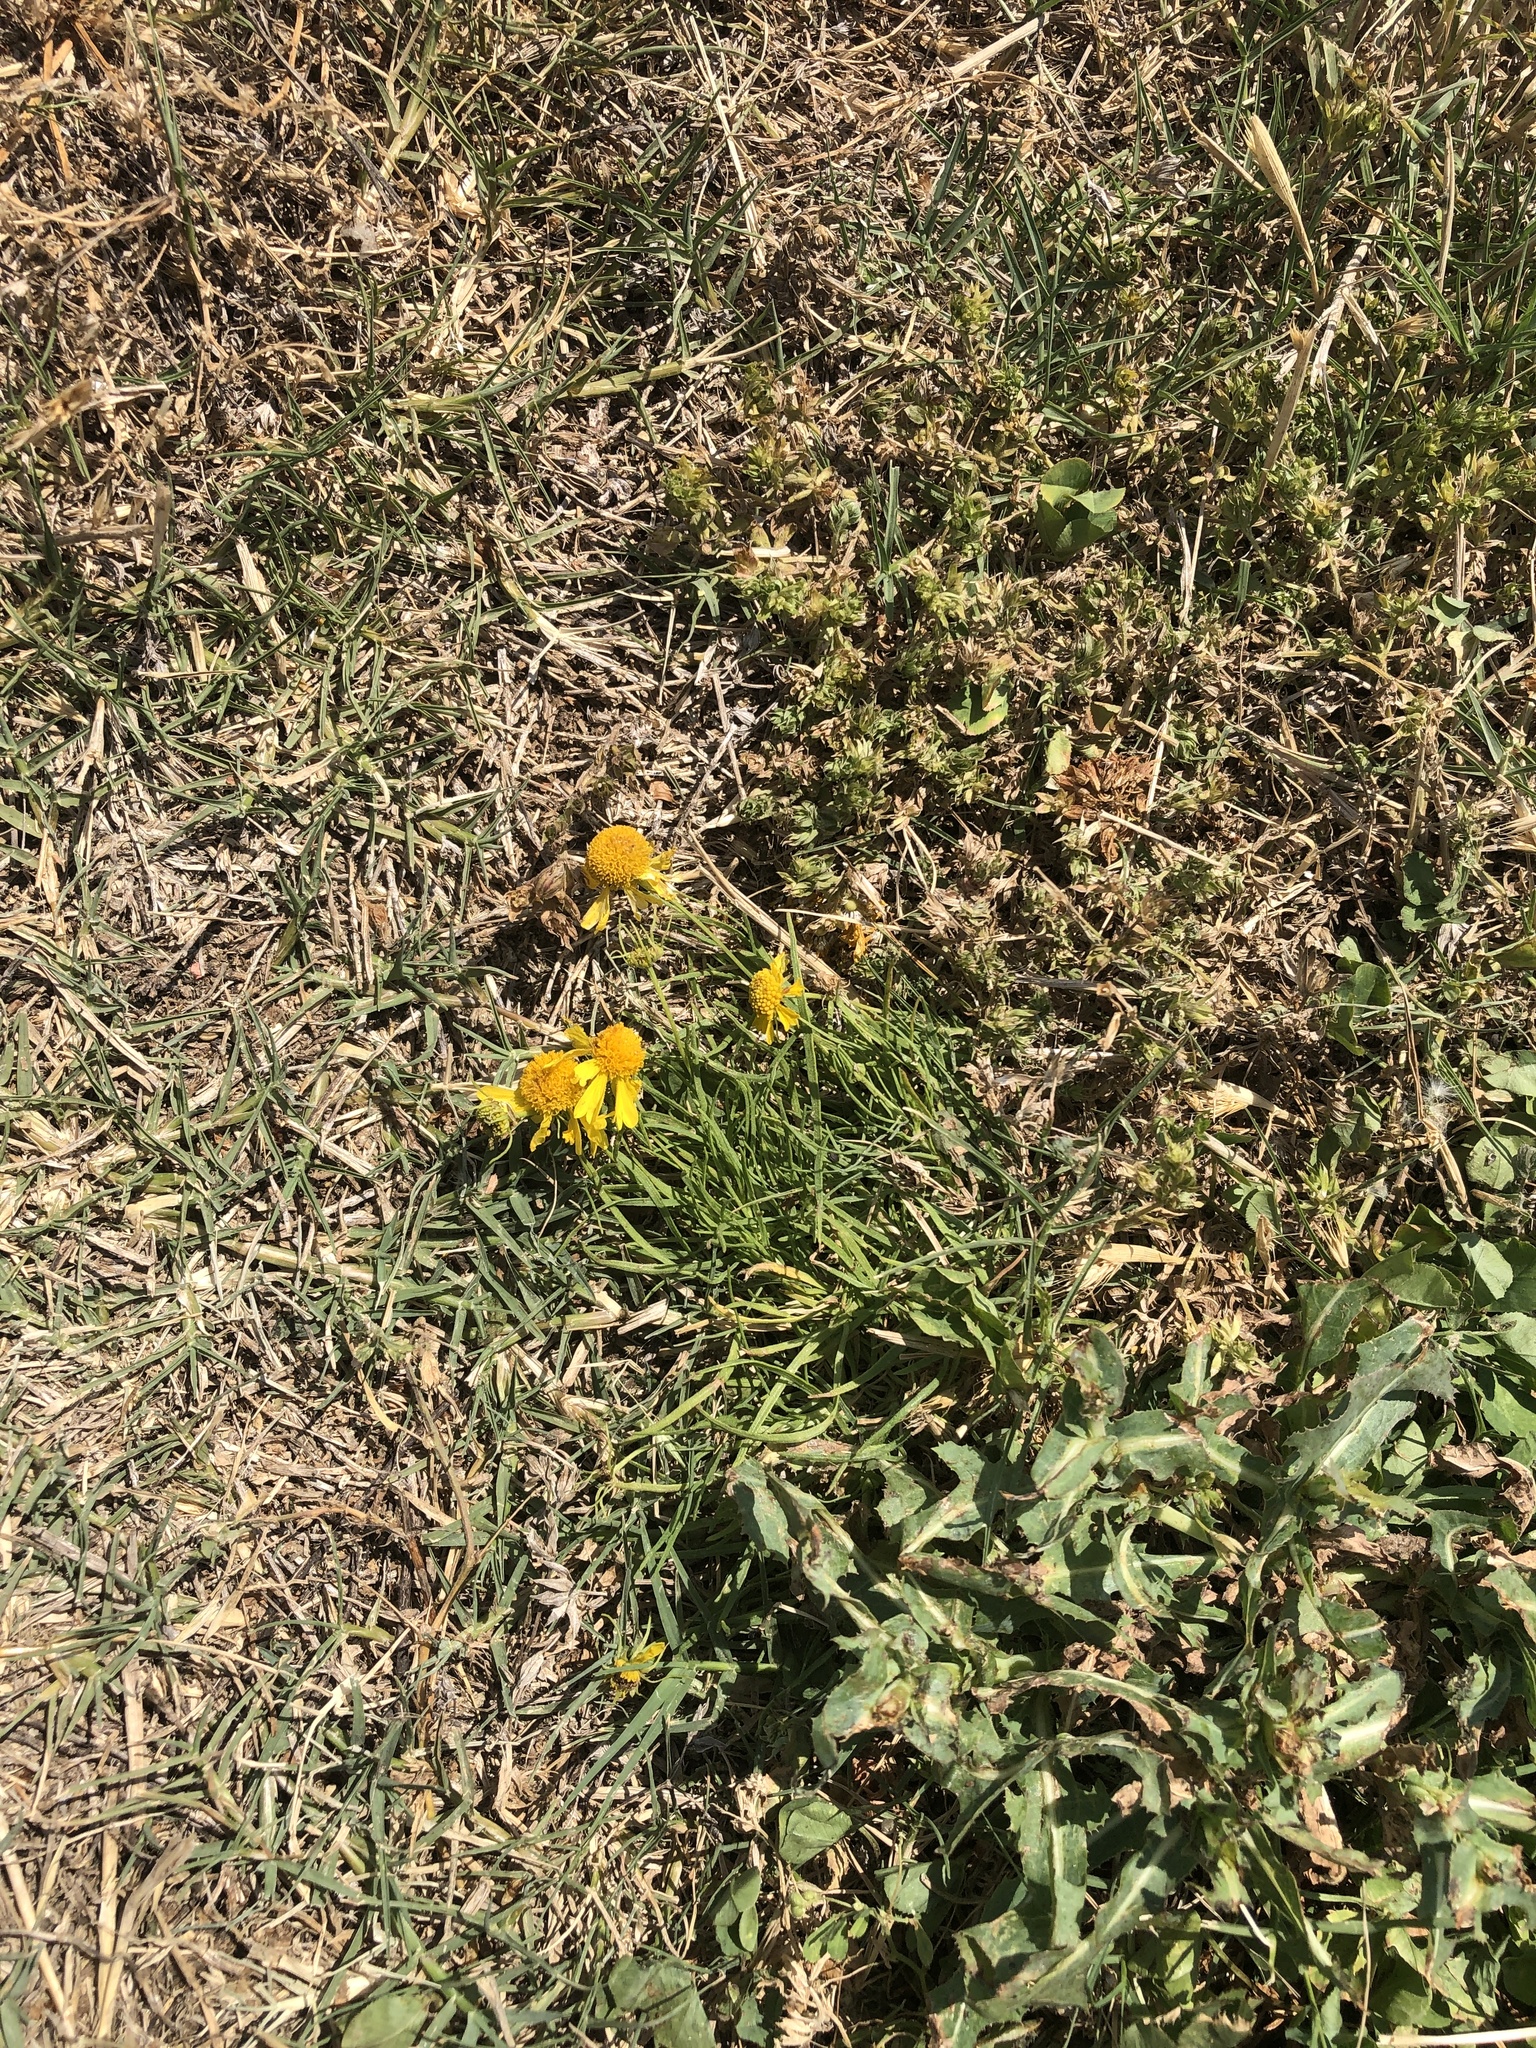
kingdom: Plantae
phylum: Tracheophyta
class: Magnoliopsida
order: Asterales
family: Asteraceae
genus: Helenium
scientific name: Helenium amarum
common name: Bitter sneezeweed
